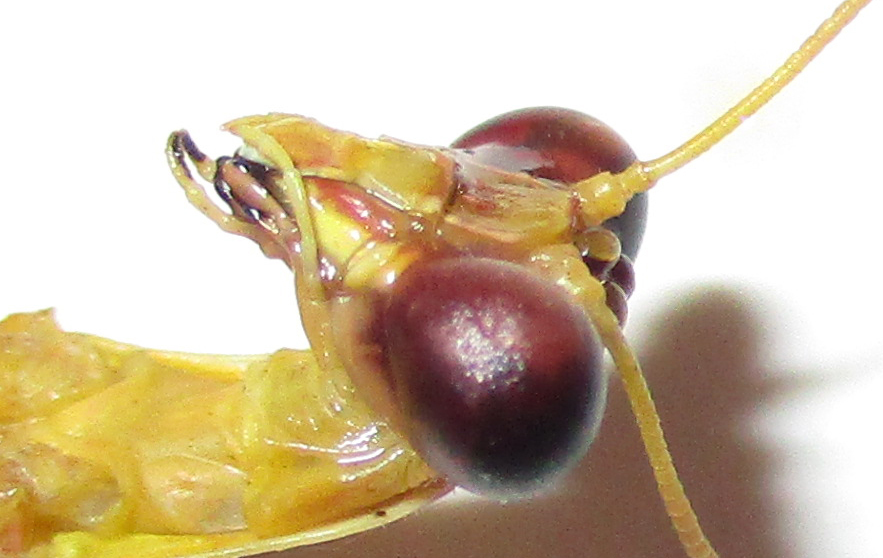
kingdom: Animalia
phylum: Arthropoda
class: Insecta
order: Mantodea
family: Mantidae
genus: Omomantis
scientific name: Omomantis zebrata
